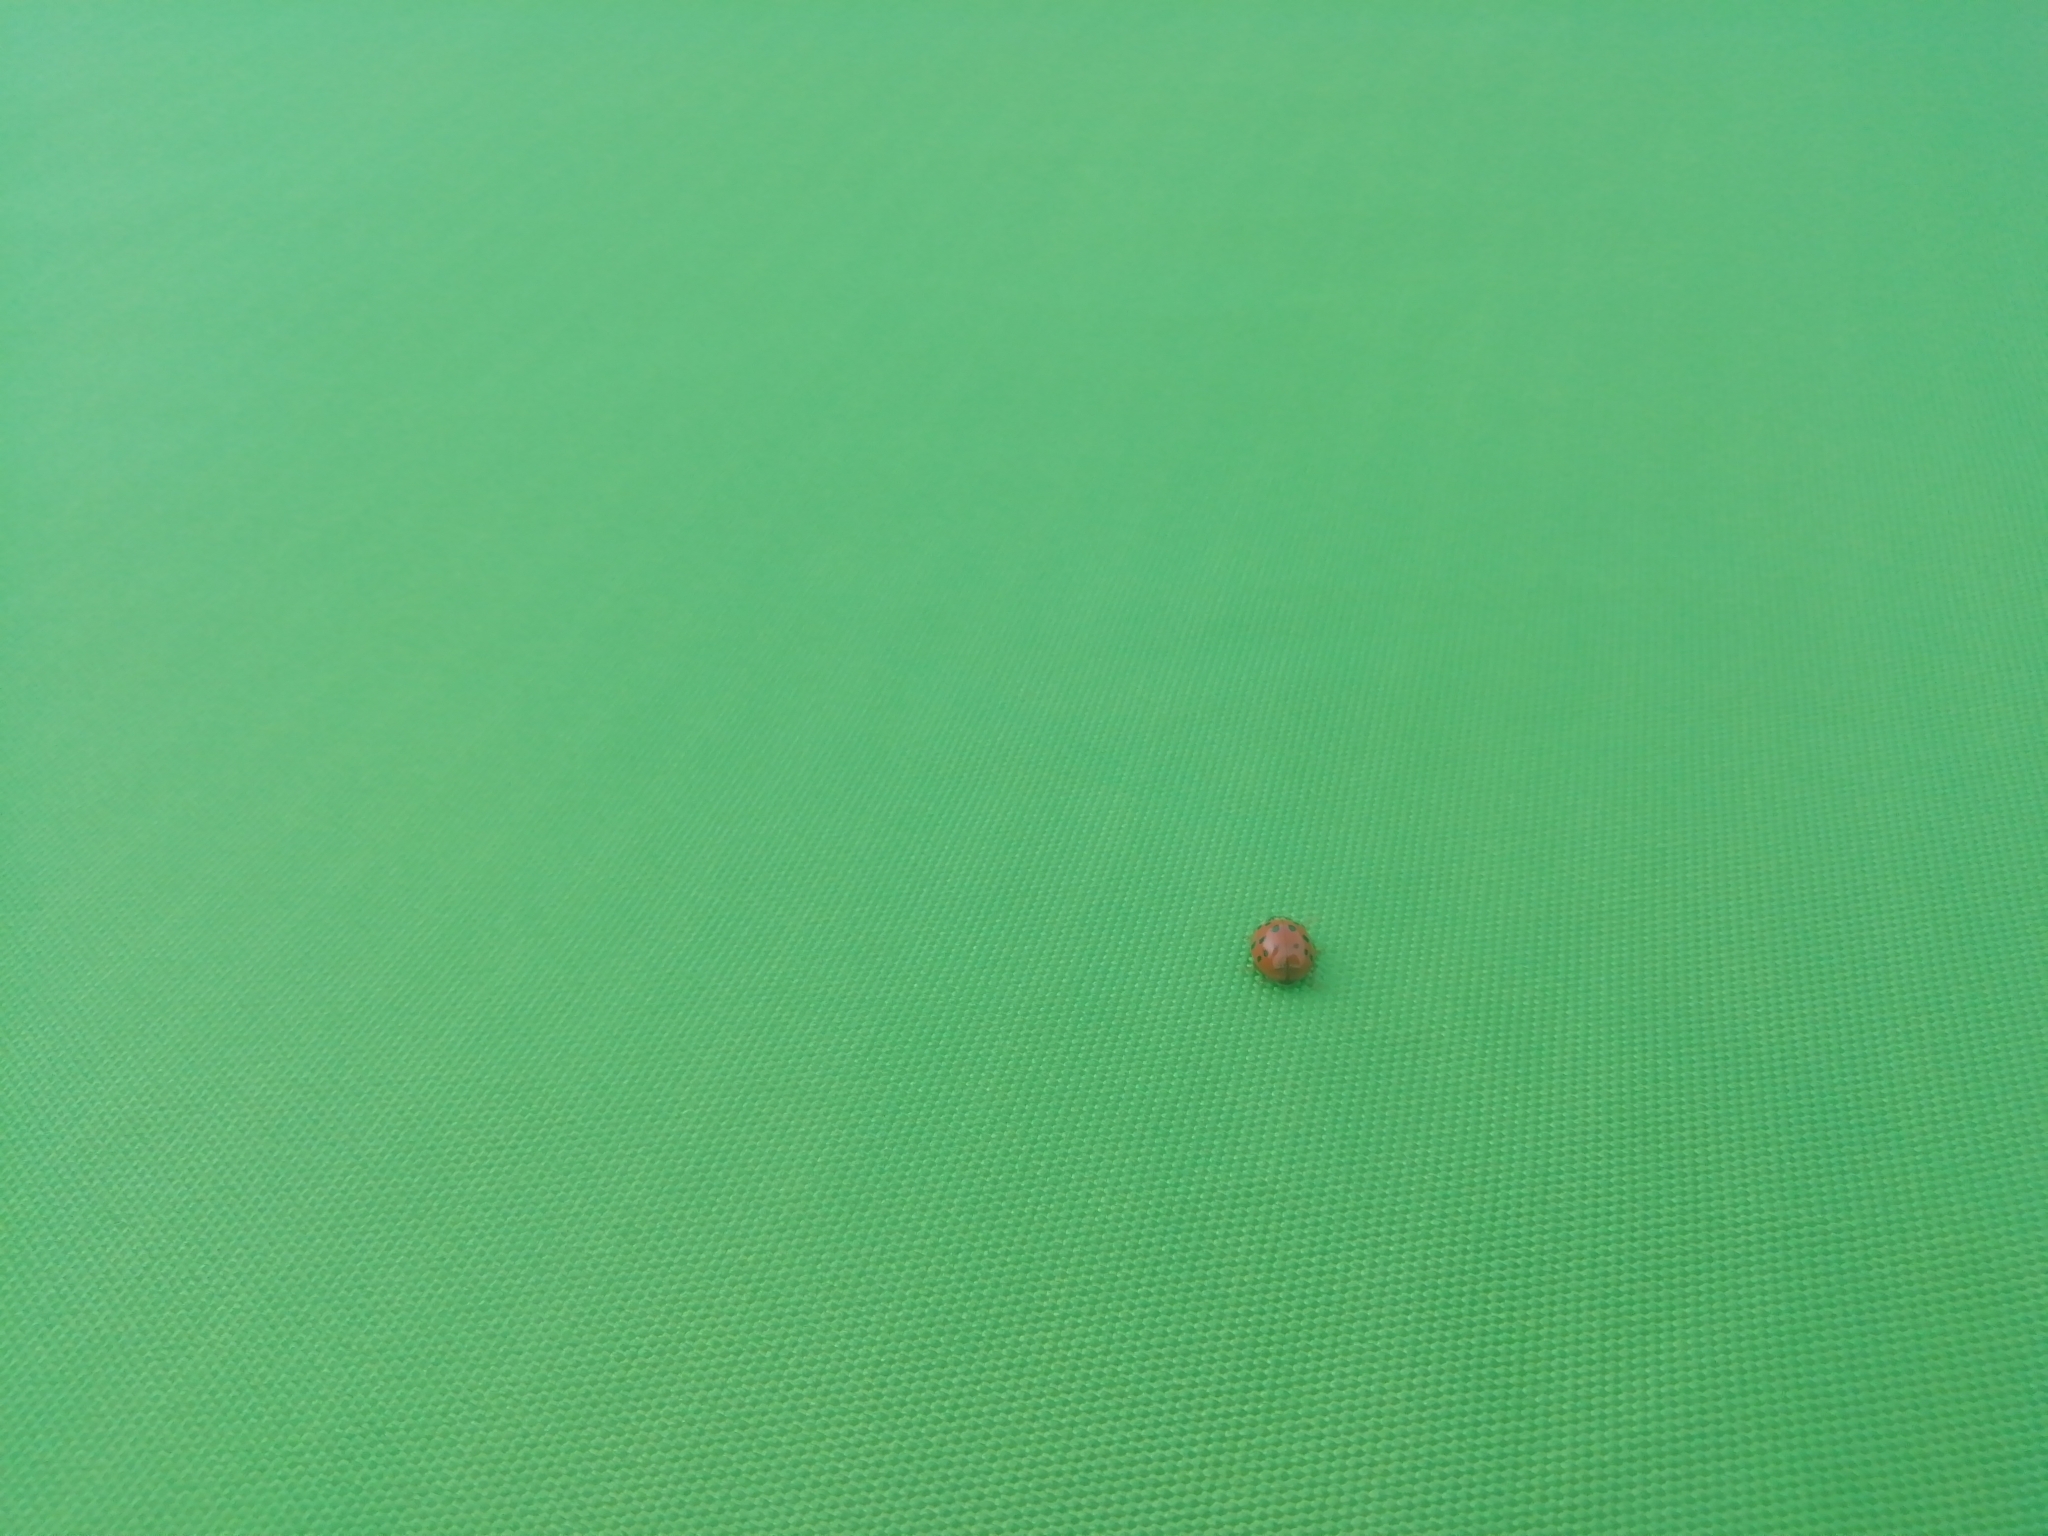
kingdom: Animalia
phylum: Arthropoda
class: Insecta
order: Coleoptera
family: Coccinellidae
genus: Harmonia
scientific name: Harmonia axyridis
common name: Harlequin ladybird
